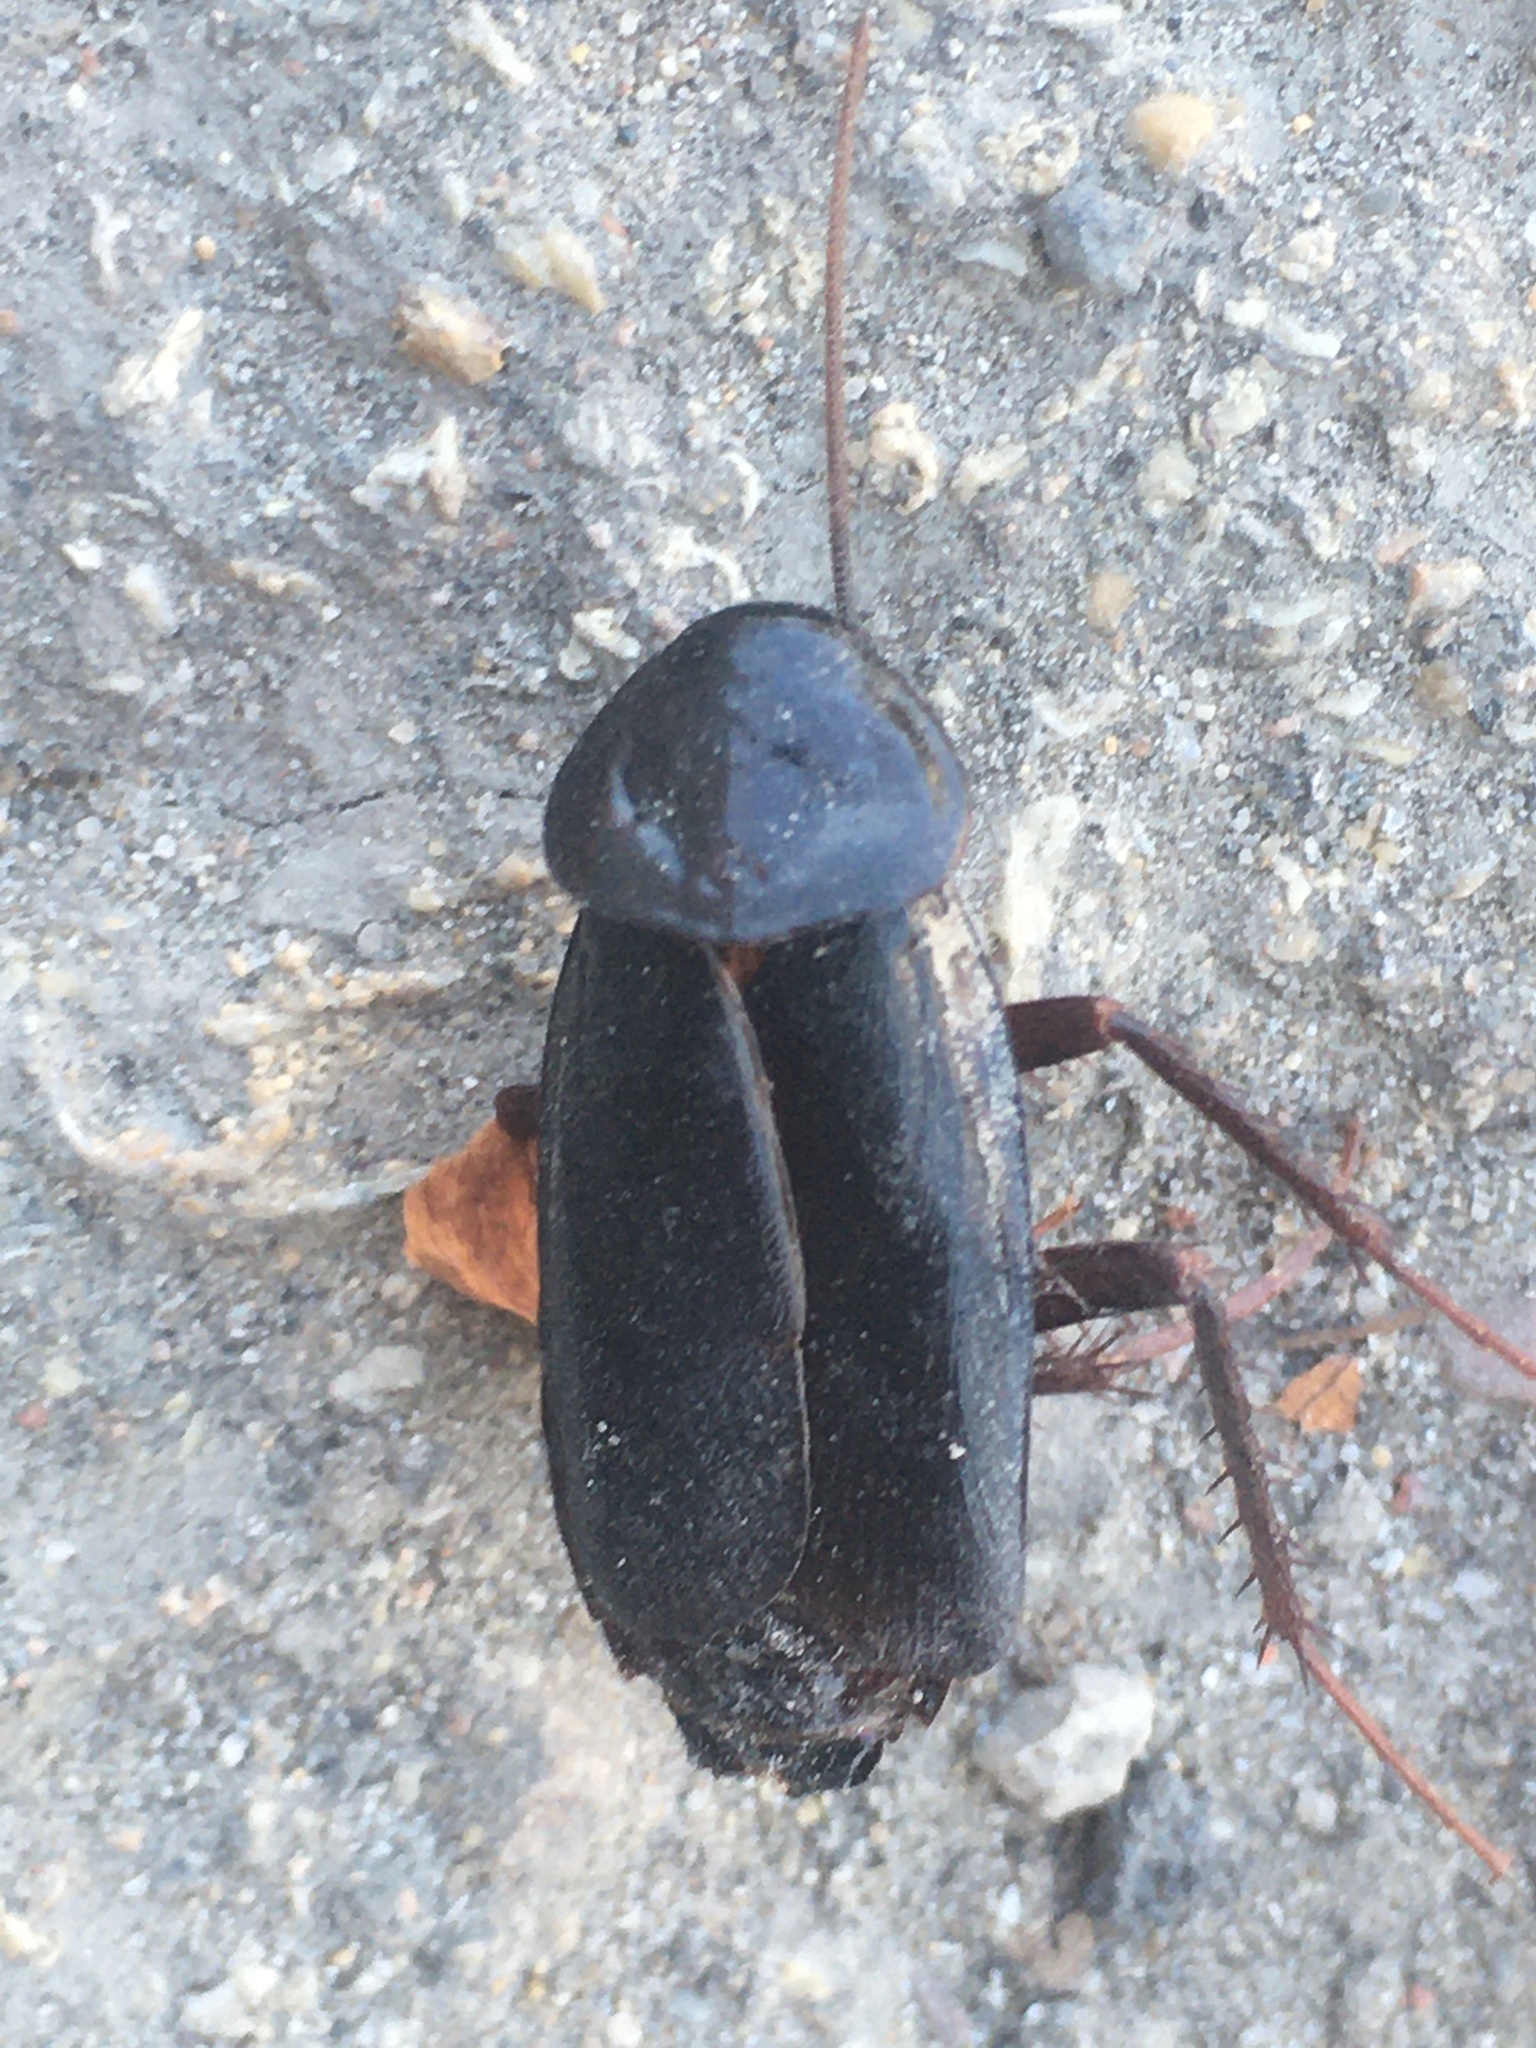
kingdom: Animalia
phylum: Arthropoda
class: Insecta
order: Blattodea
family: Blattidae
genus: Blatta
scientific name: Blatta orientalis
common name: Oriental cockroach
